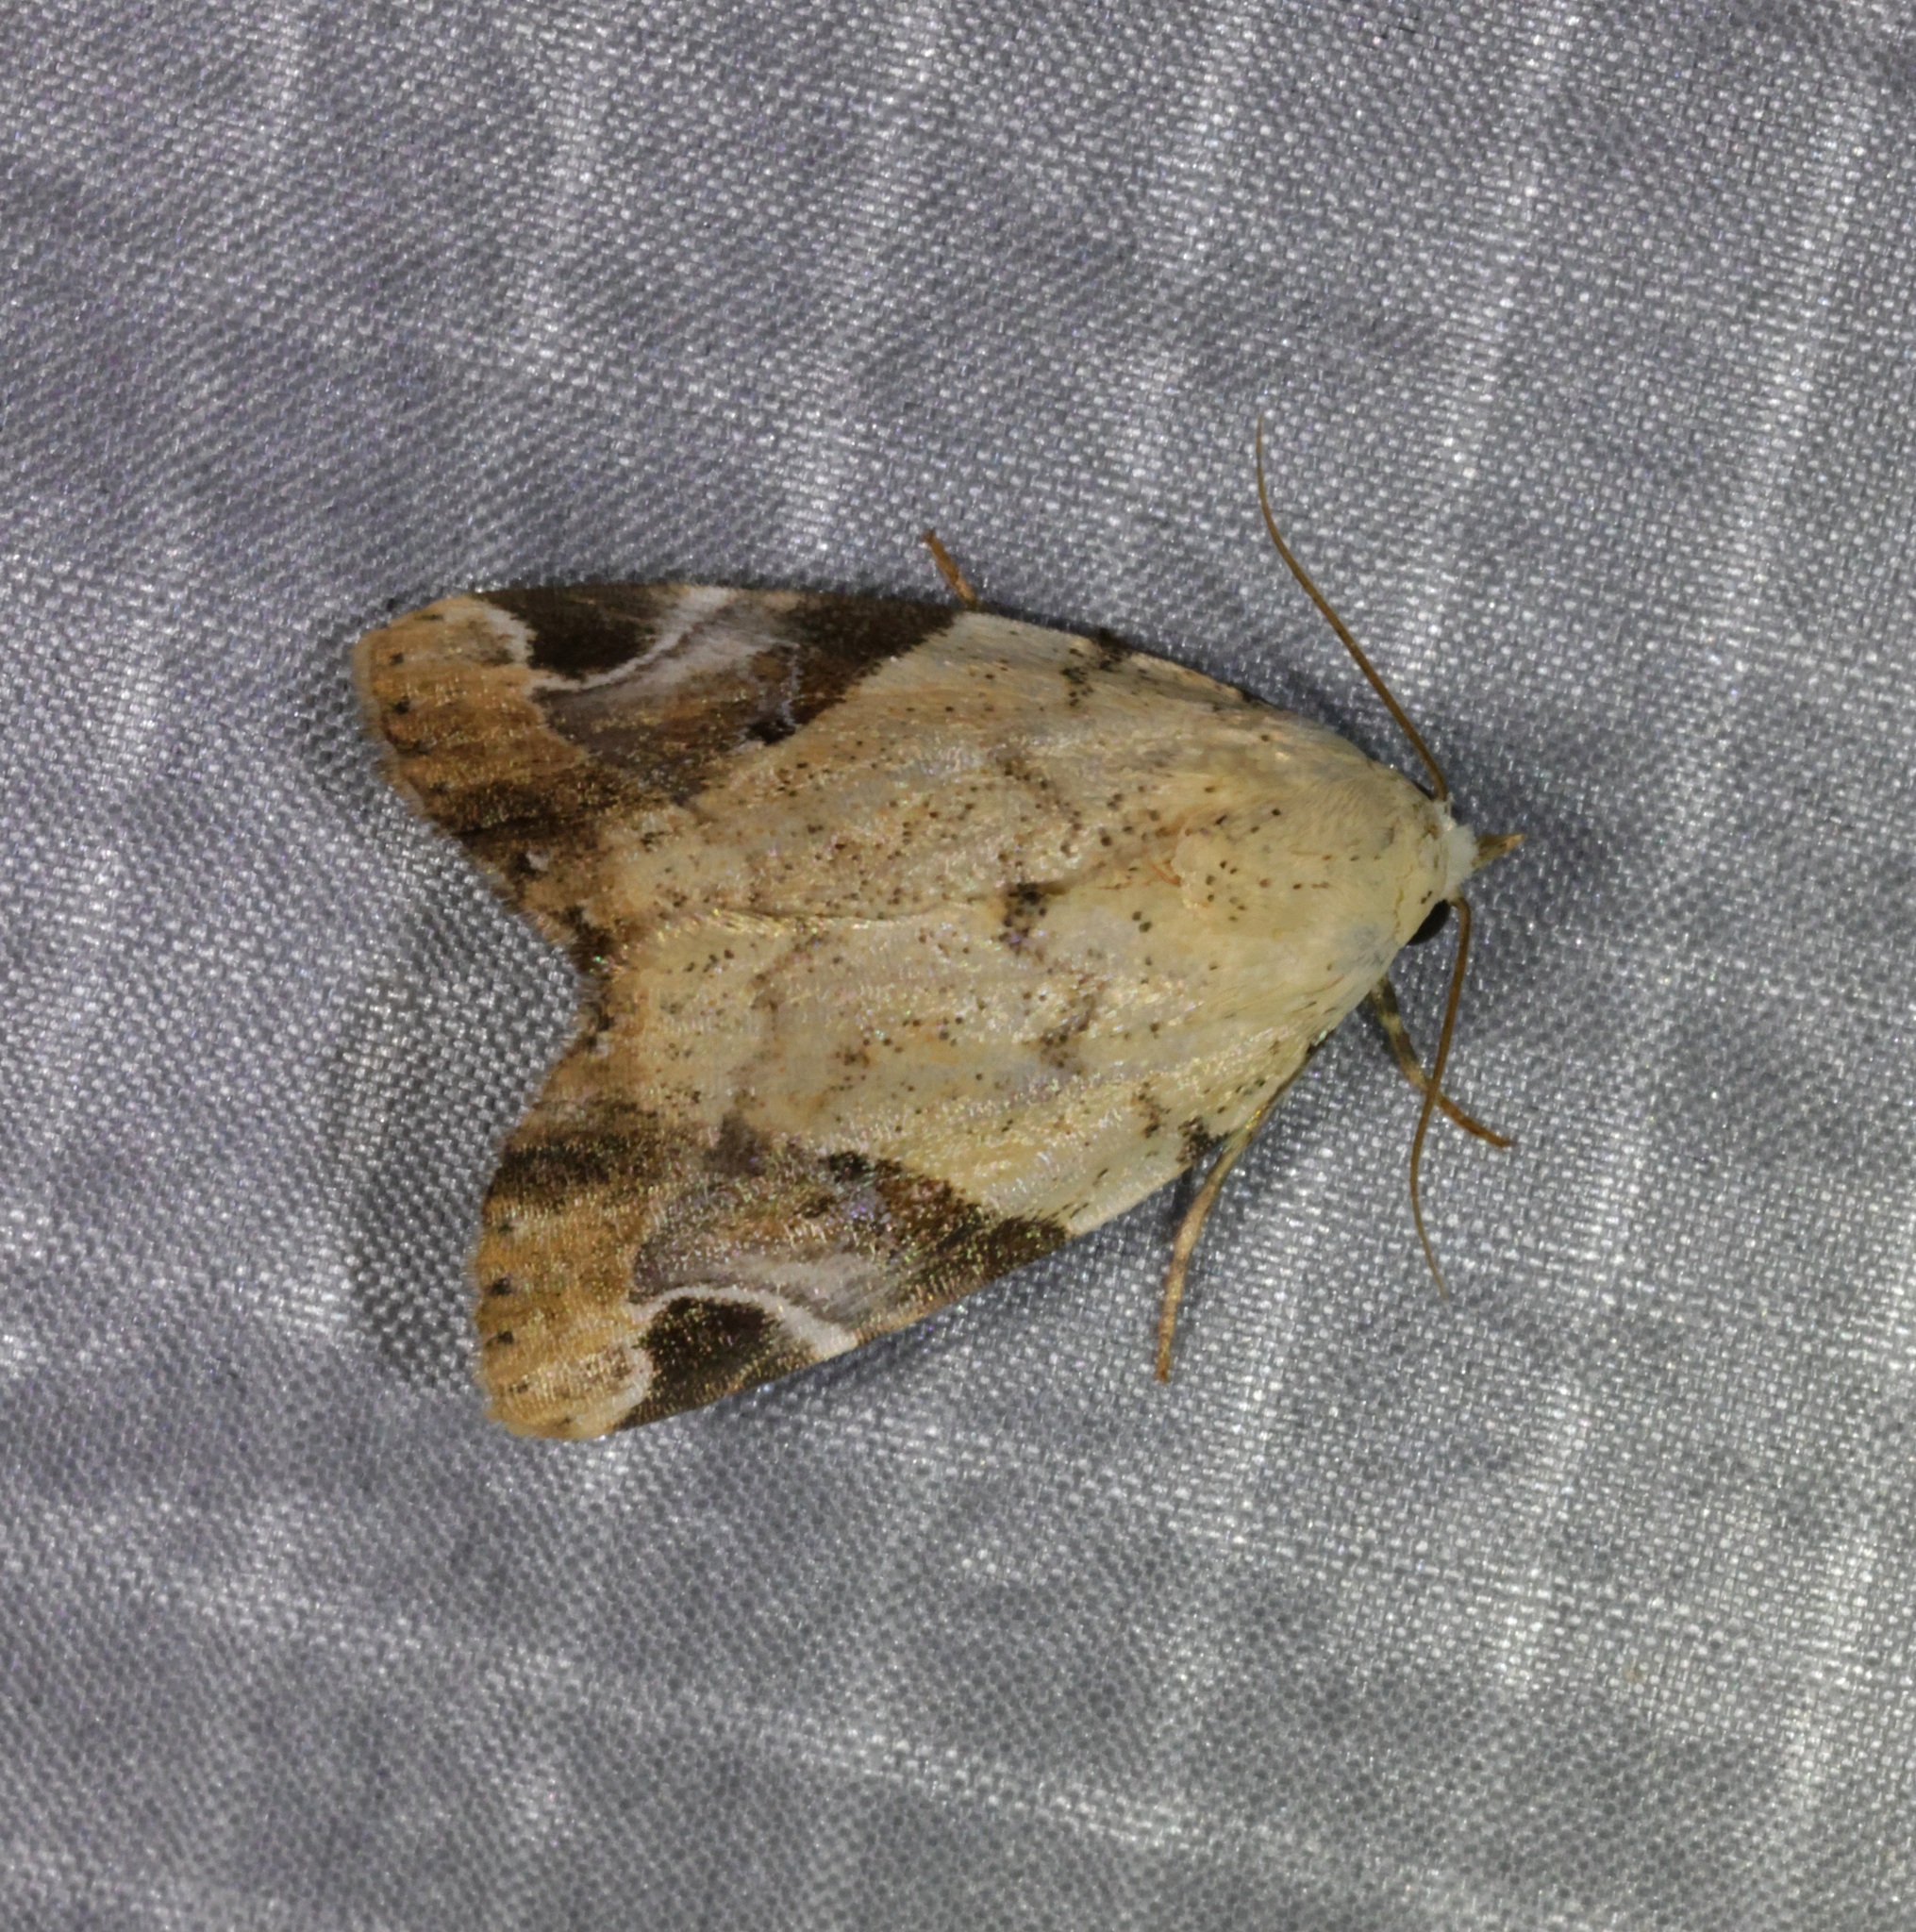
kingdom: Animalia
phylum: Arthropoda
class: Insecta
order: Lepidoptera
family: Noctuidae
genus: Pseudeustrotia
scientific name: Pseudeustrotia semialba
